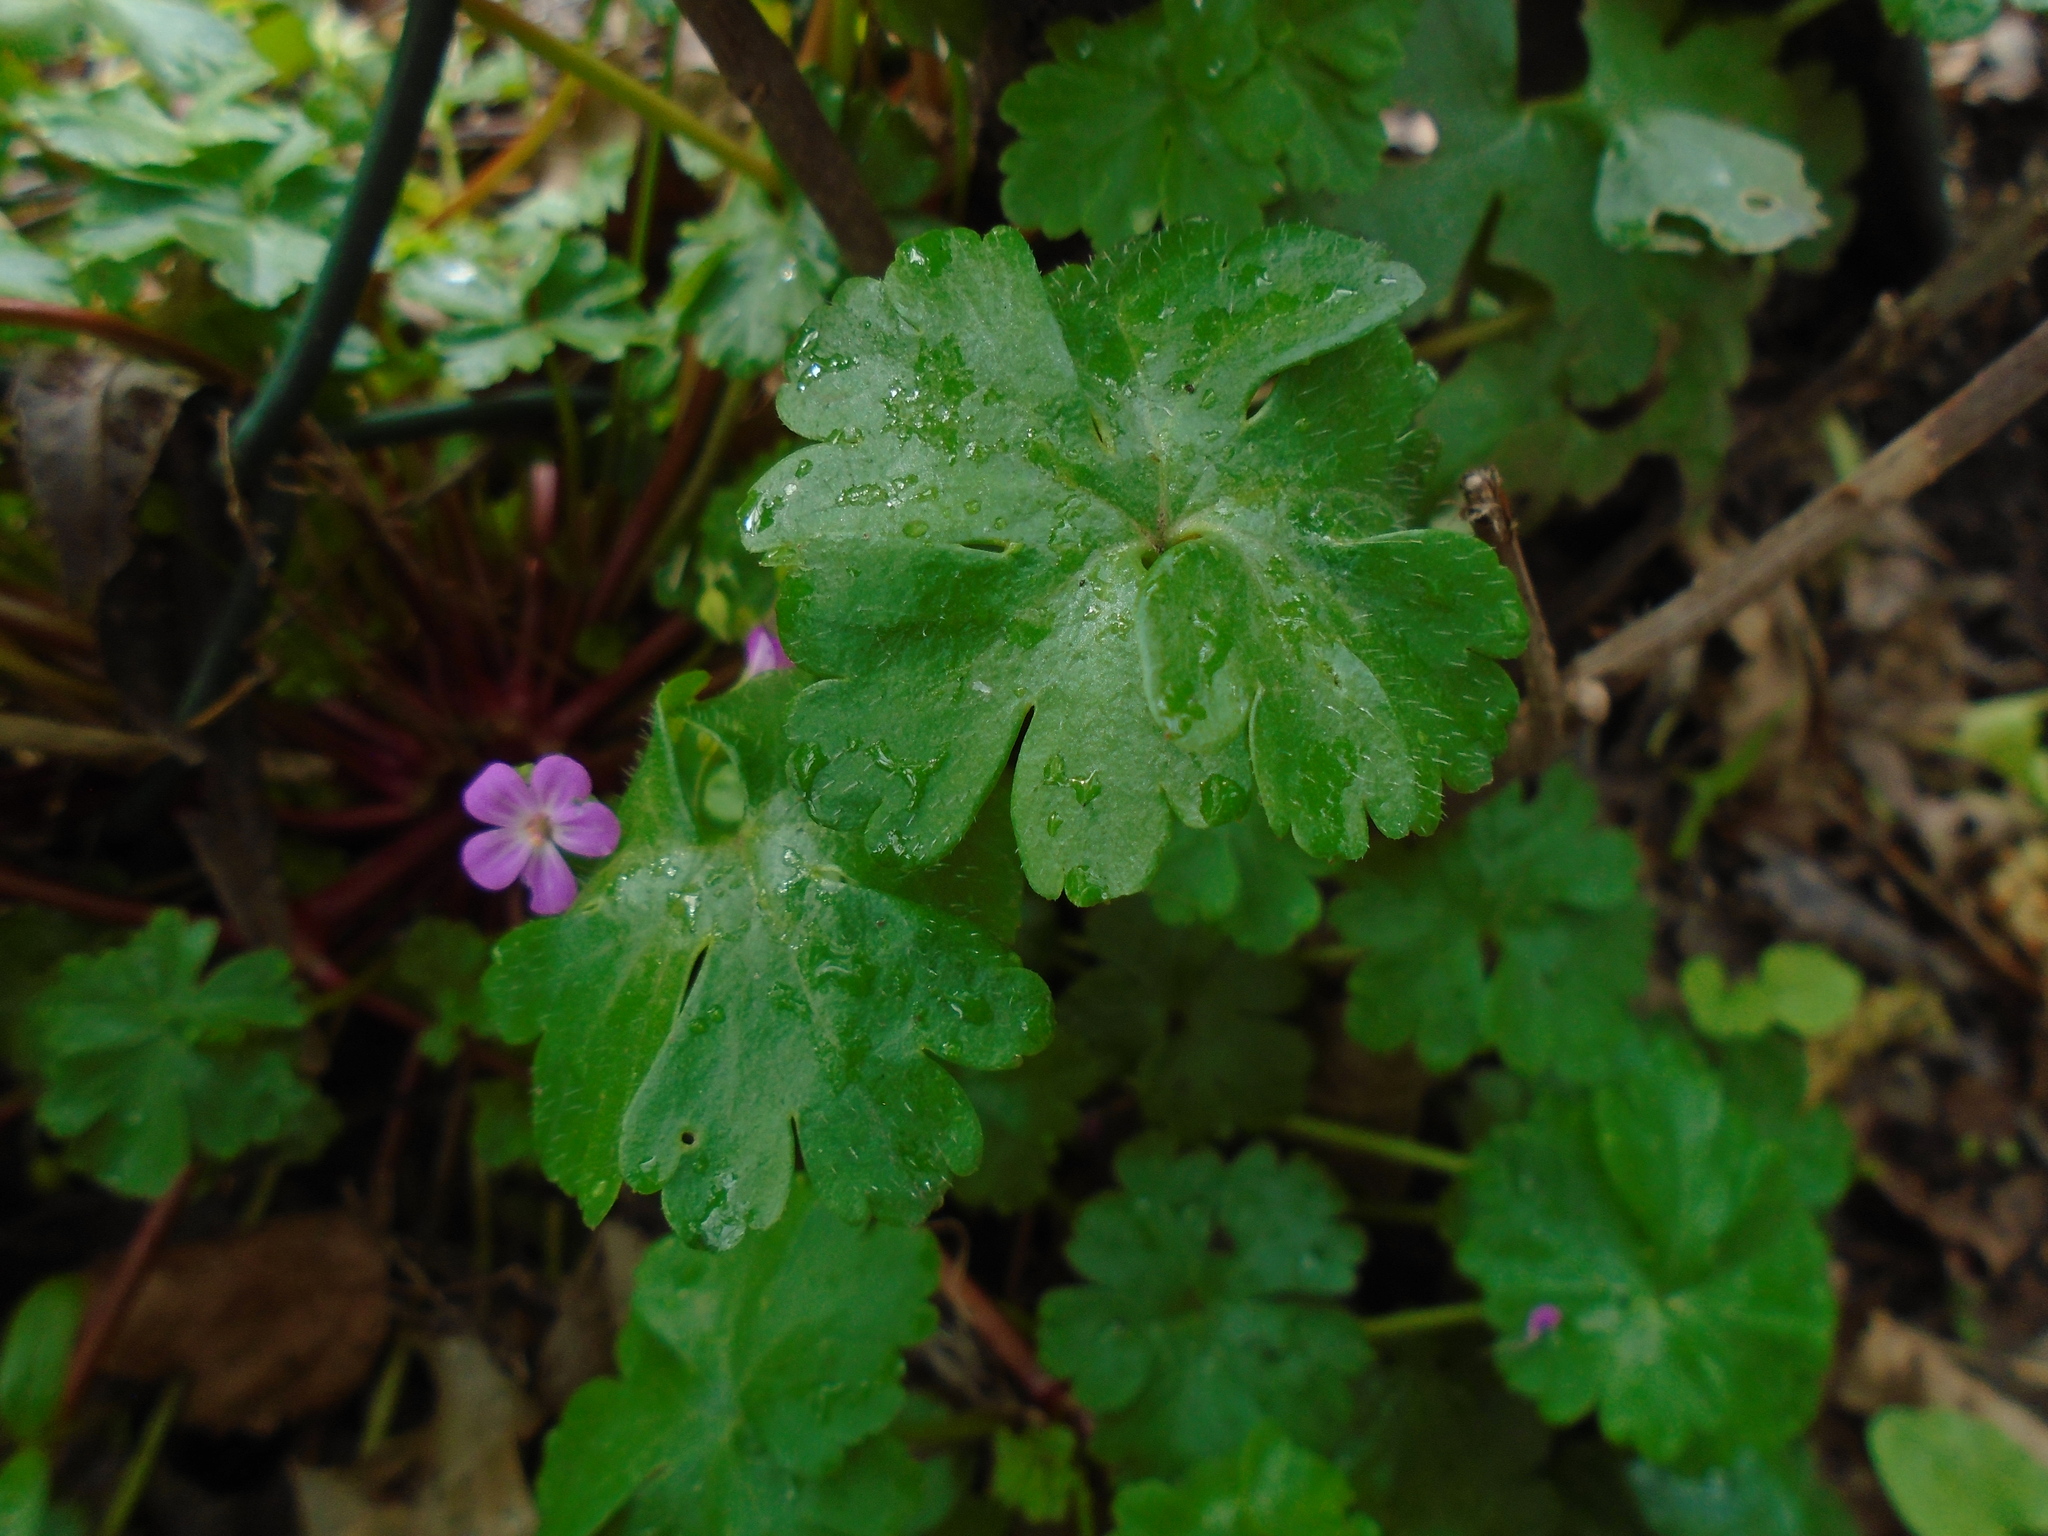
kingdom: Plantae
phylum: Tracheophyta
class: Magnoliopsida
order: Geraniales
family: Geraniaceae
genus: Geranium
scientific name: Geranium lucidum
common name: Shining crane's-bill
